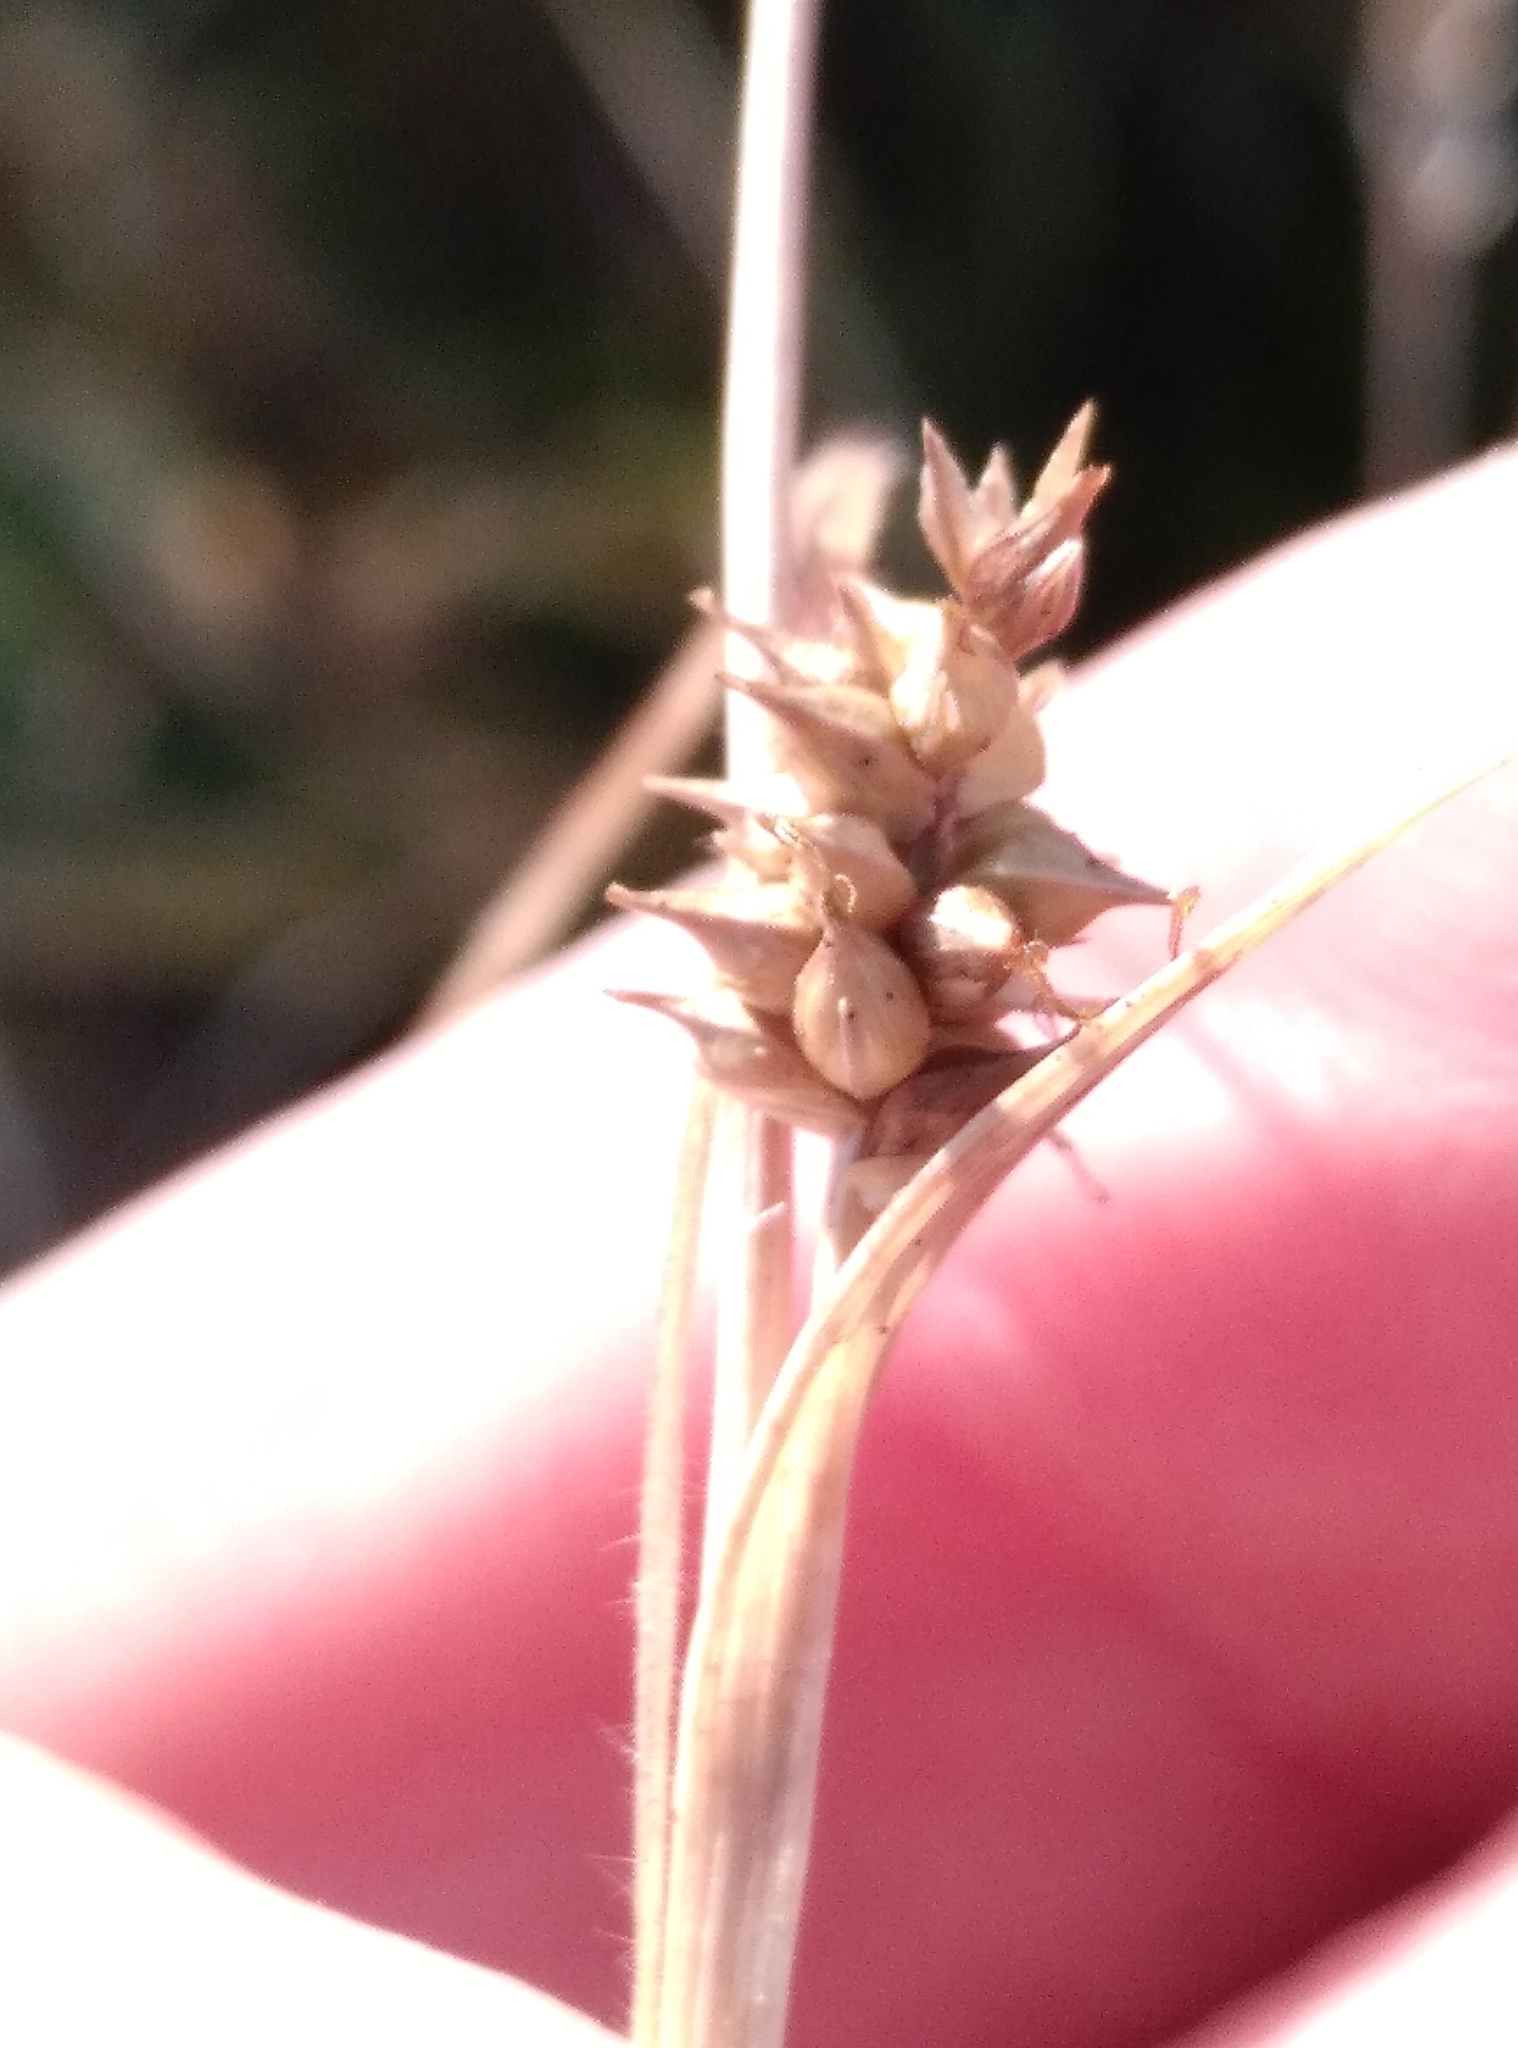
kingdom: Plantae
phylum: Tracheophyta
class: Liliopsida
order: Poales
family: Cyperaceae
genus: Carex
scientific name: Carex demissa
